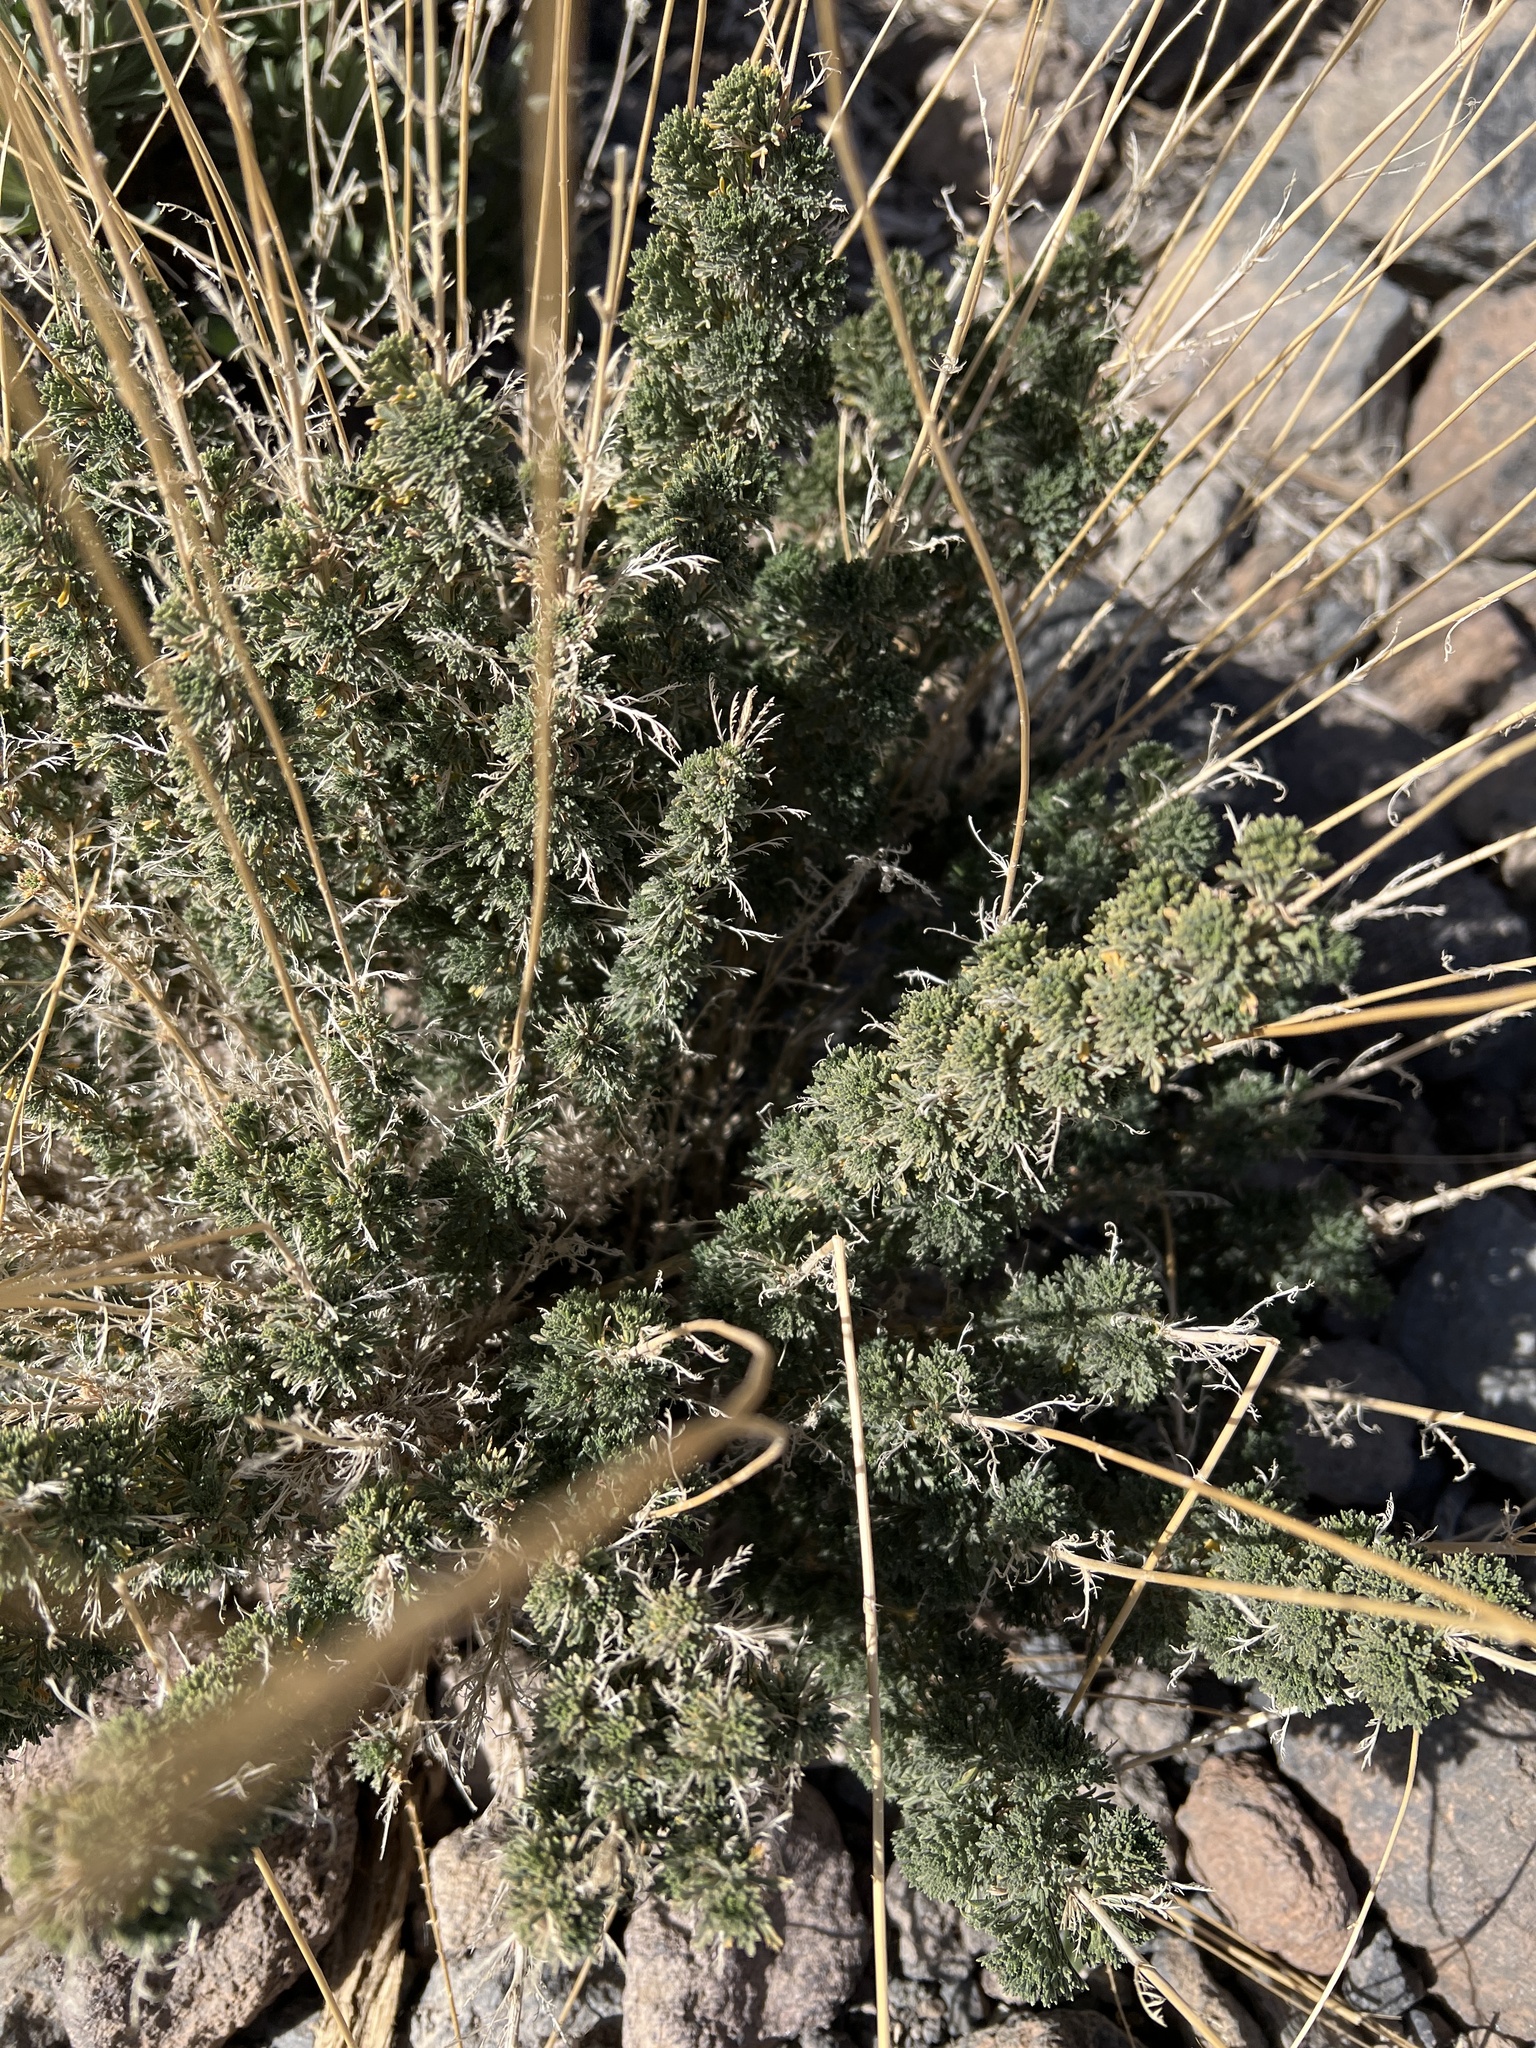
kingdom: Plantae
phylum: Tracheophyta
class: Magnoliopsida
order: Brassicales
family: Brassicaceae
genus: Descurainia
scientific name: Descurainia bourgaeana
